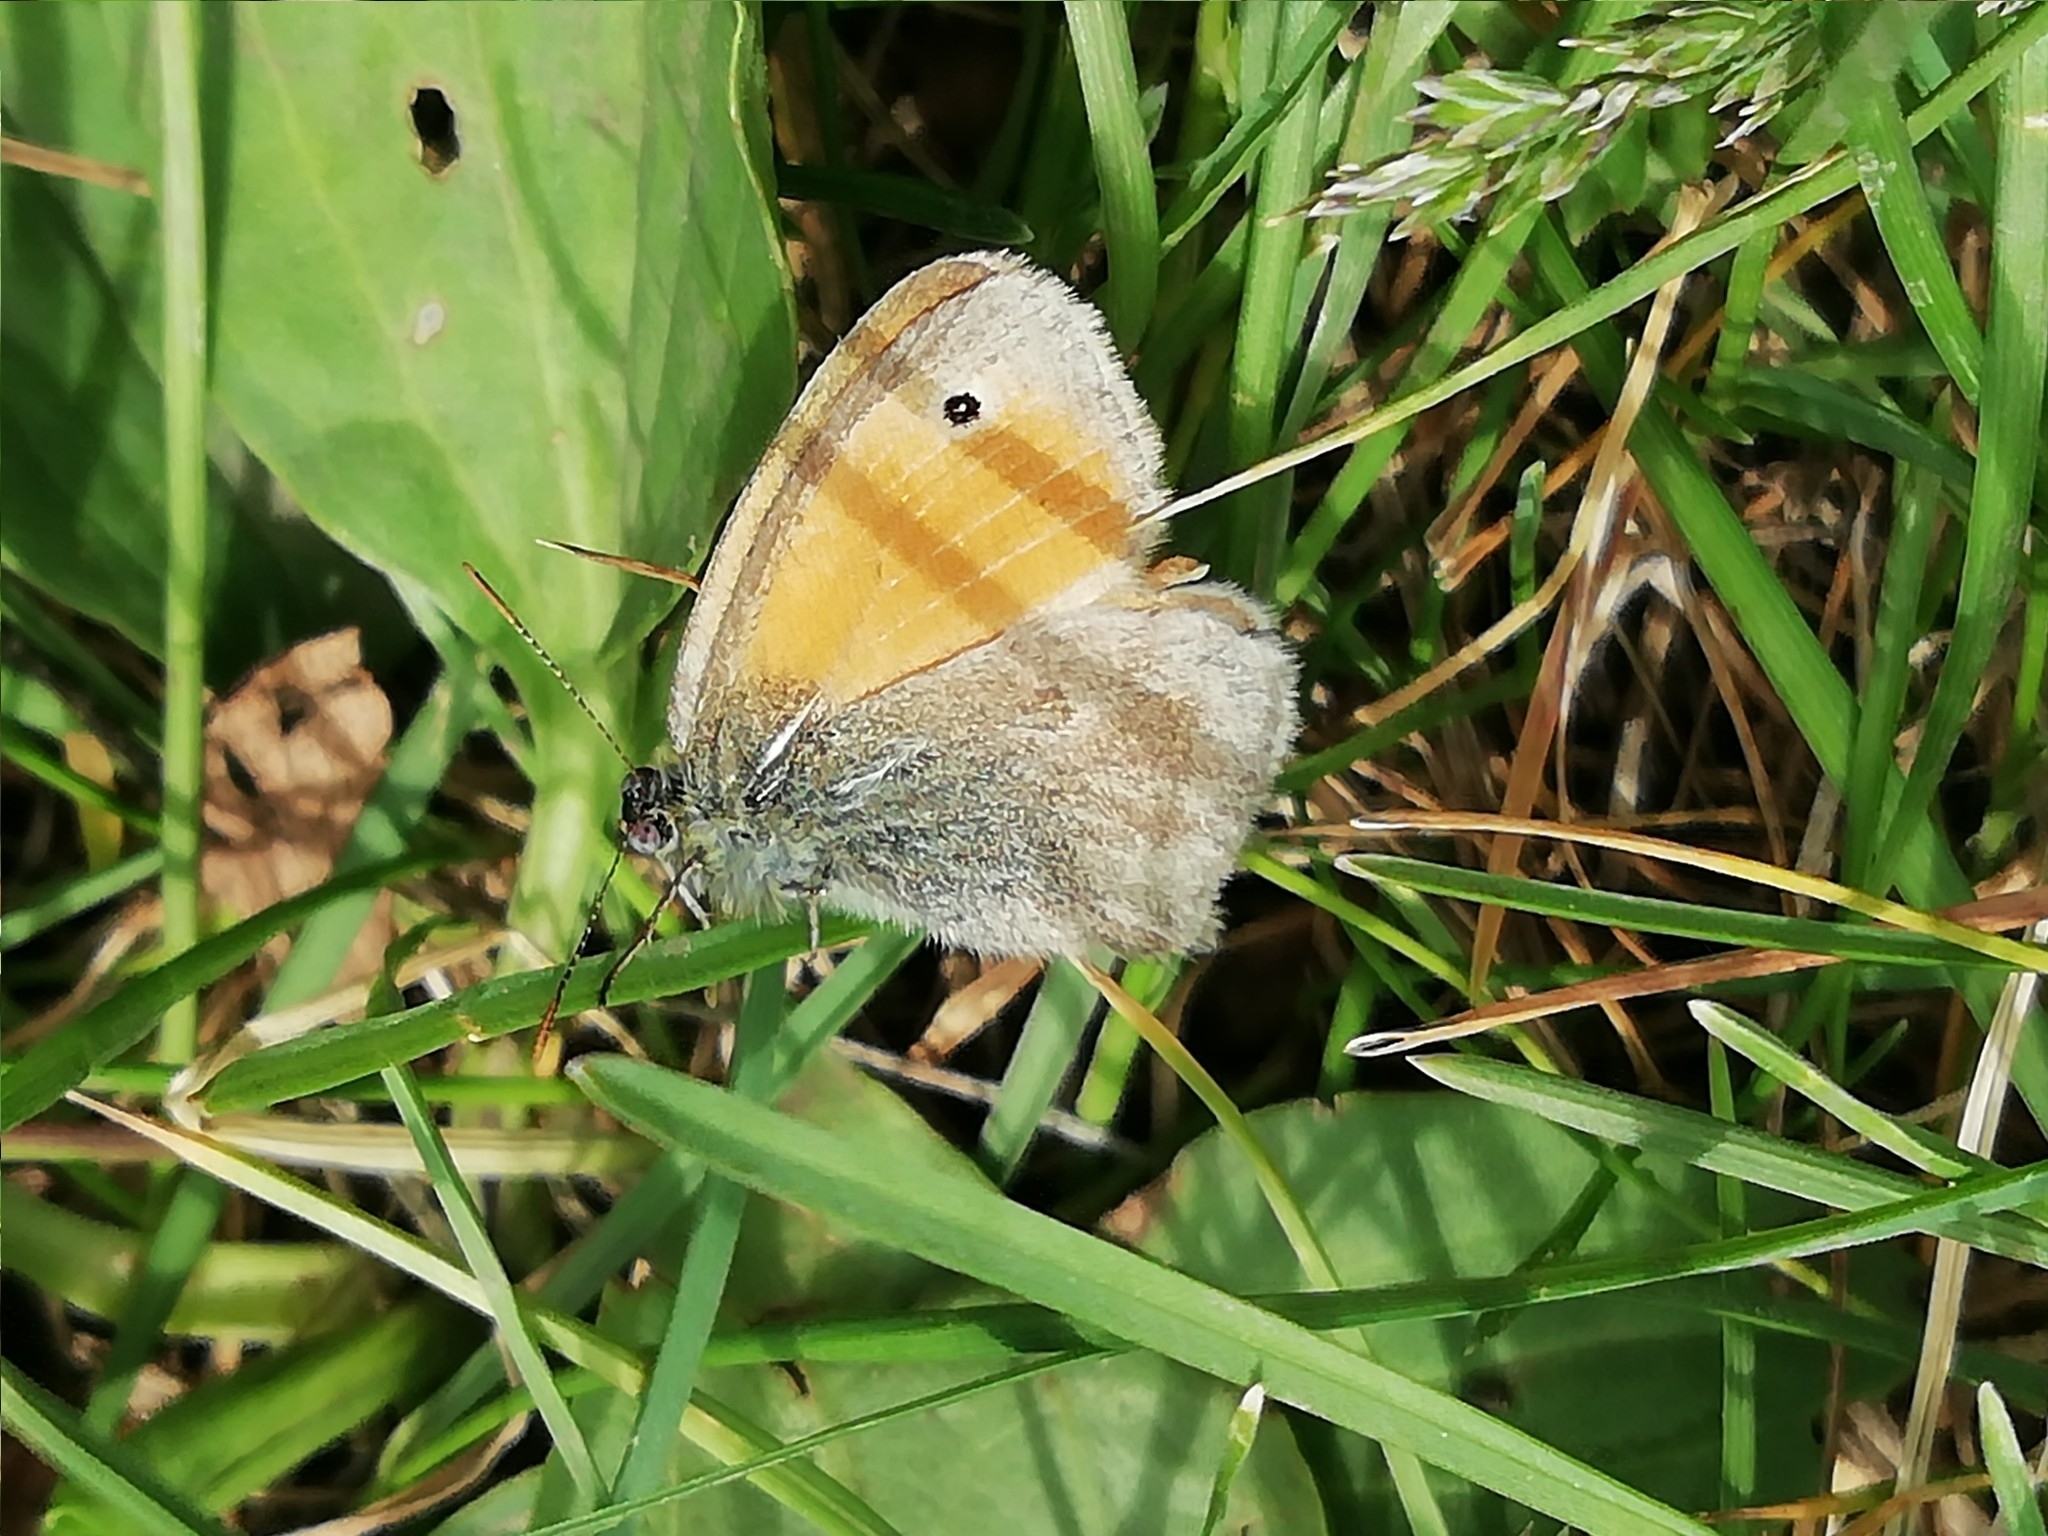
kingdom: Animalia
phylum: Arthropoda
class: Insecta
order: Lepidoptera
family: Nymphalidae
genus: Coenonympha
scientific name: Coenonympha pamphilus
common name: Small heath
